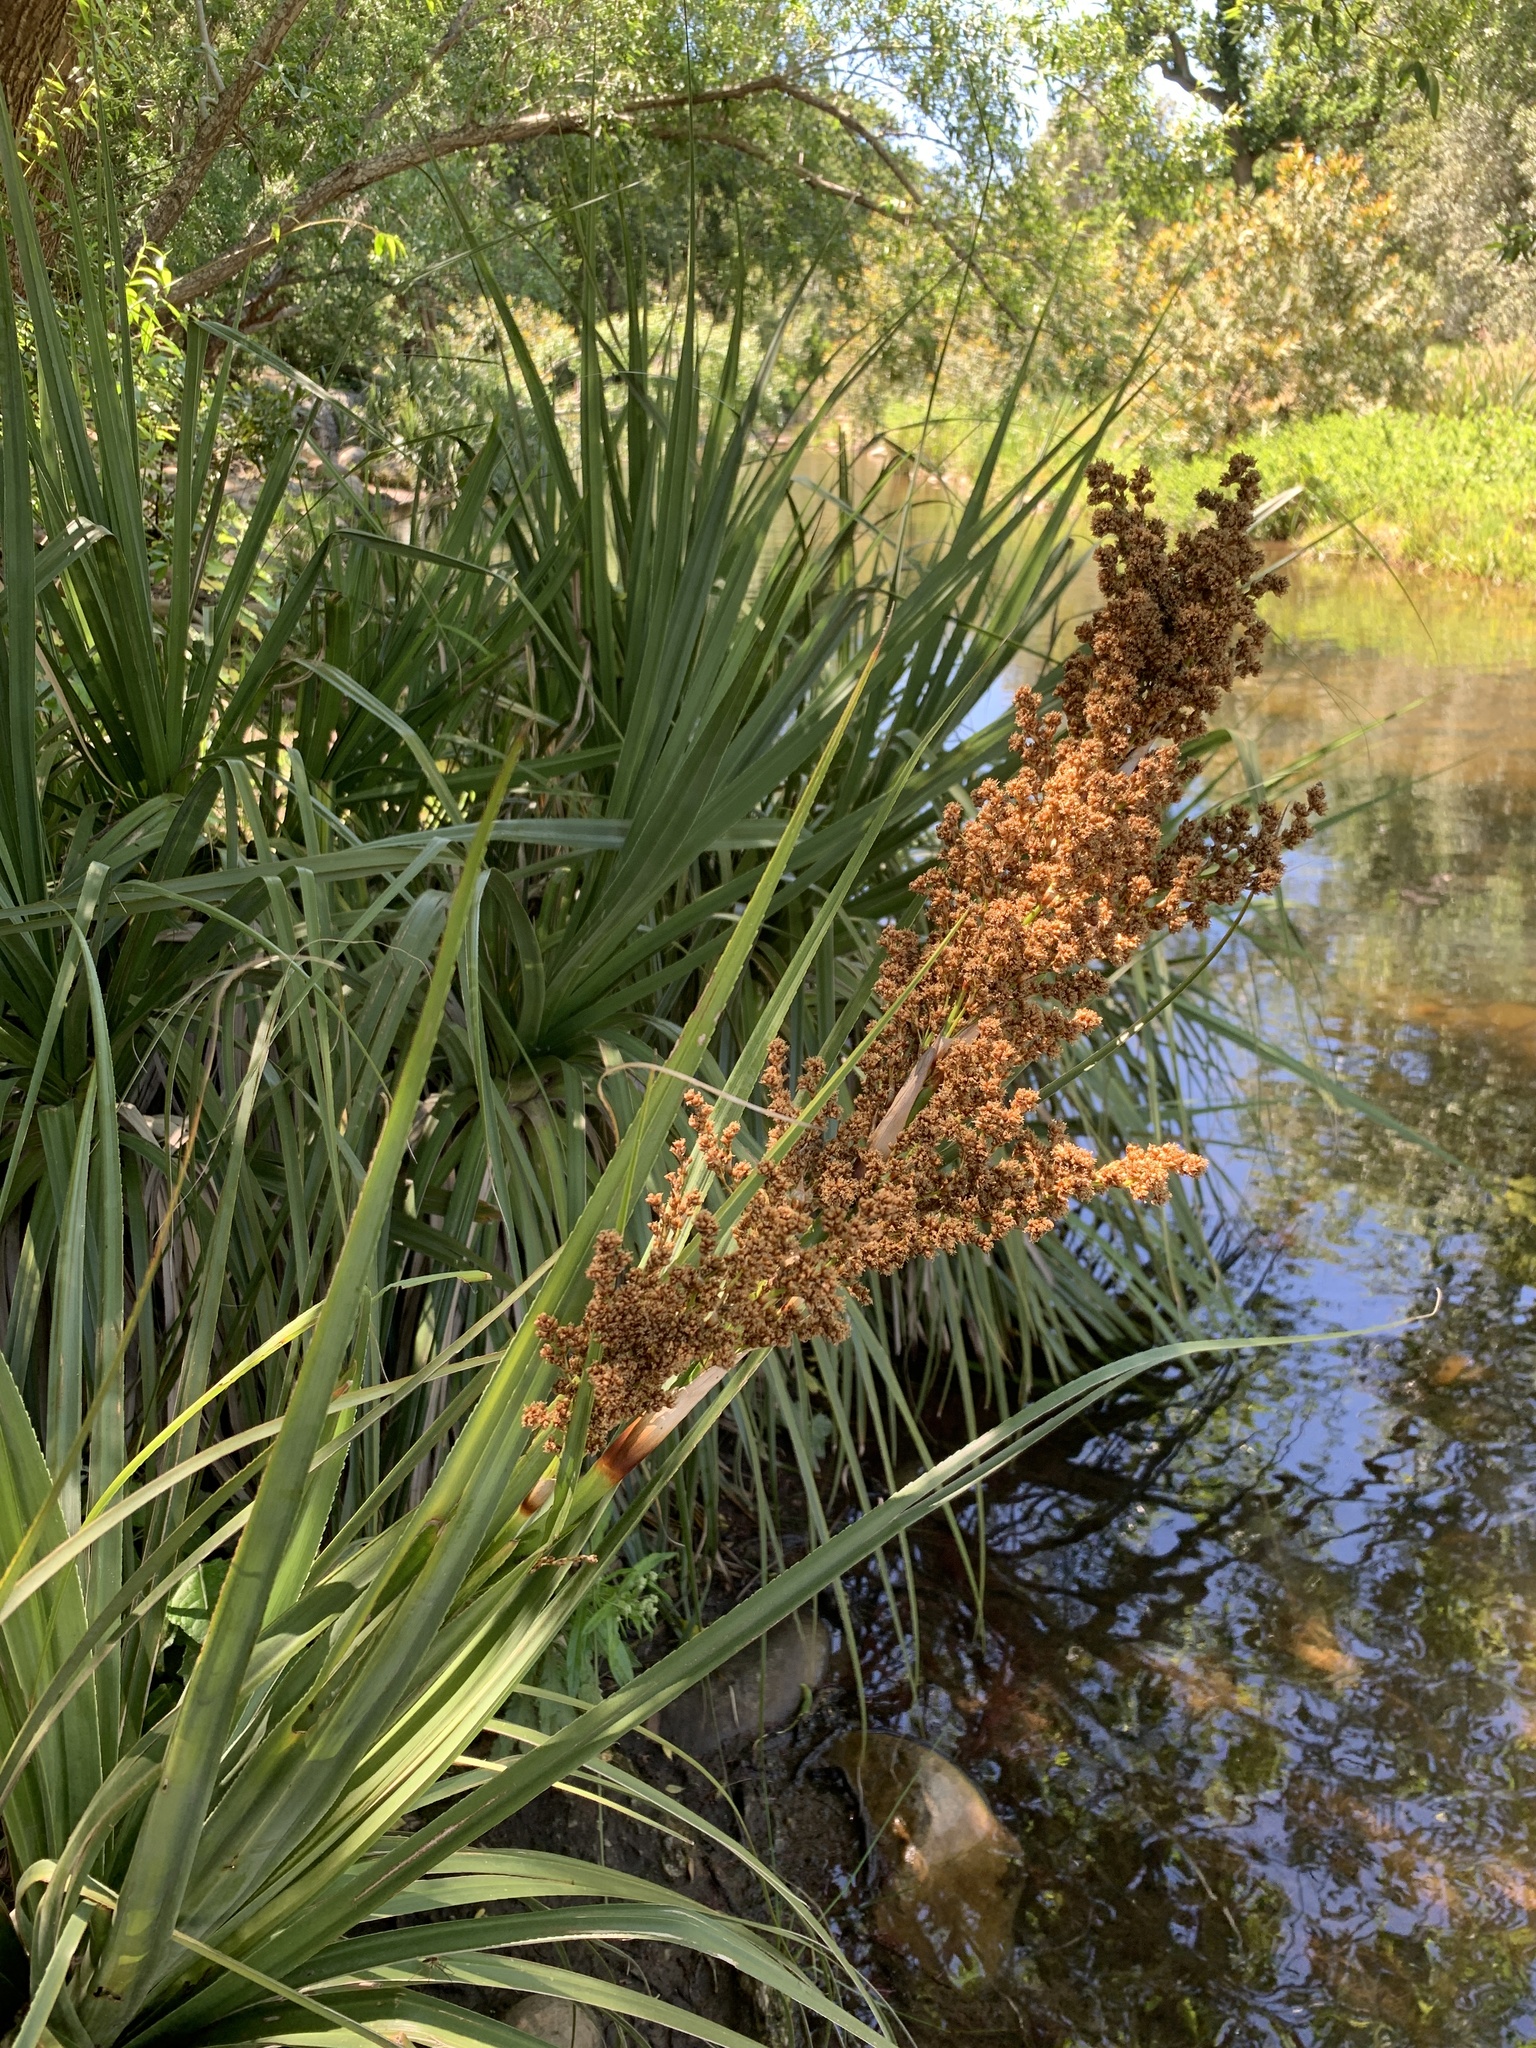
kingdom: Plantae
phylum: Tracheophyta
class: Liliopsida
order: Poales
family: Thurniaceae
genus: Prionium
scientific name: Prionium serratum
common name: Palmiet
